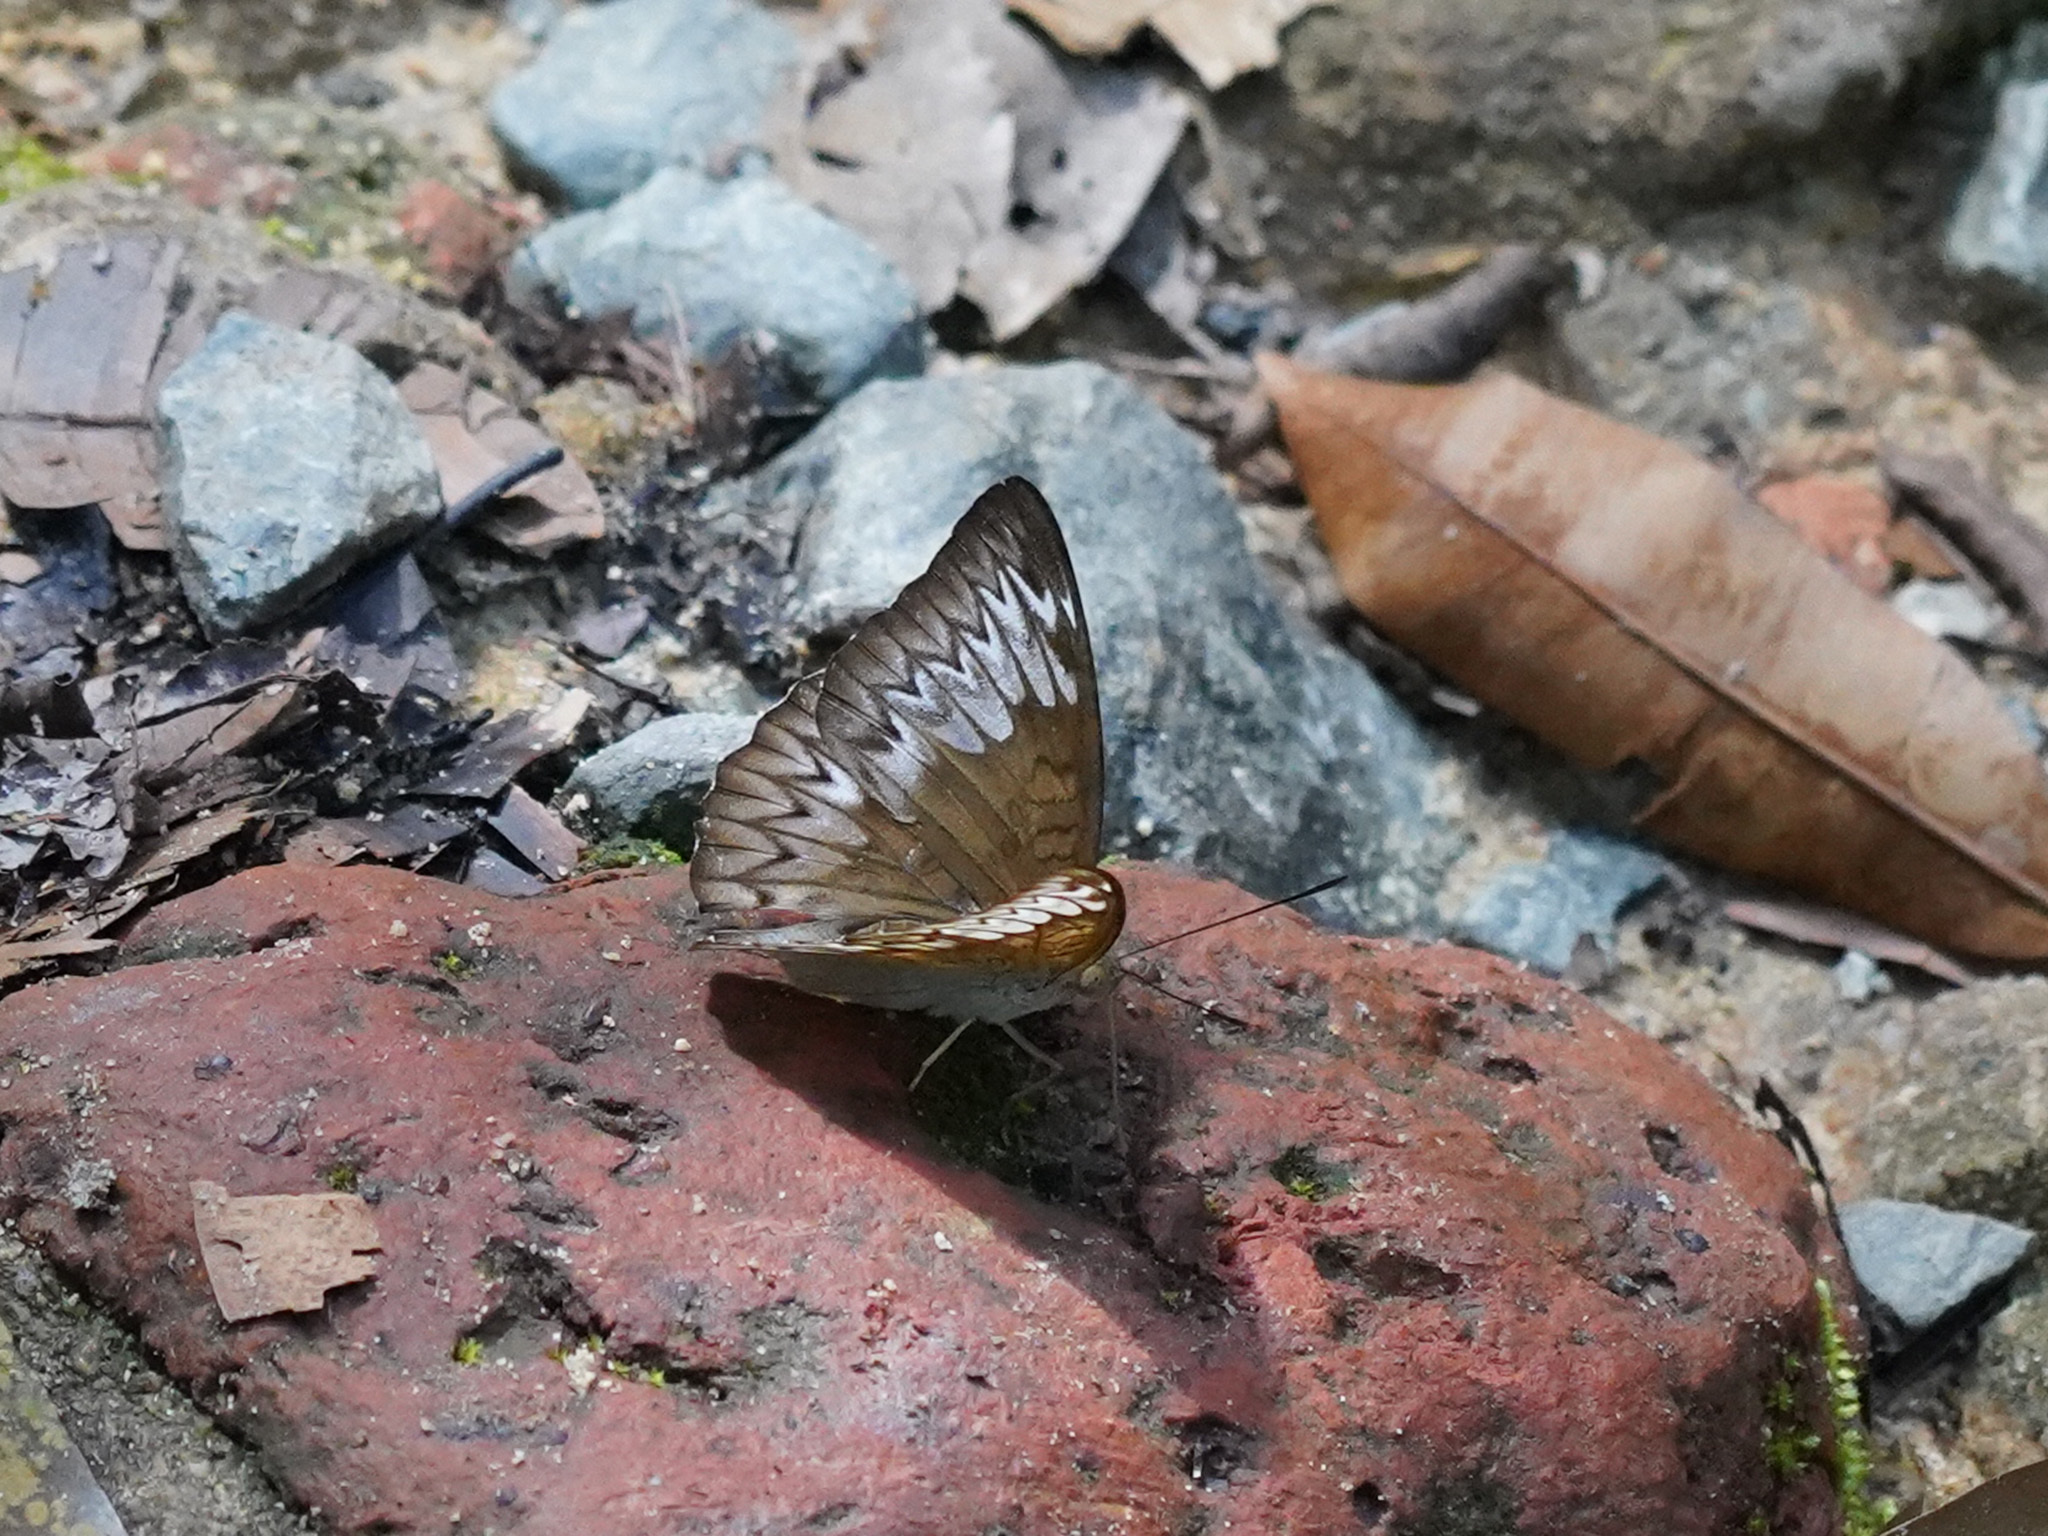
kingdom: Animalia
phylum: Arthropoda
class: Insecta
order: Lepidoptera
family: Nymphalidae
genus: Euthalia
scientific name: Euthalia monina
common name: Powdered baron
